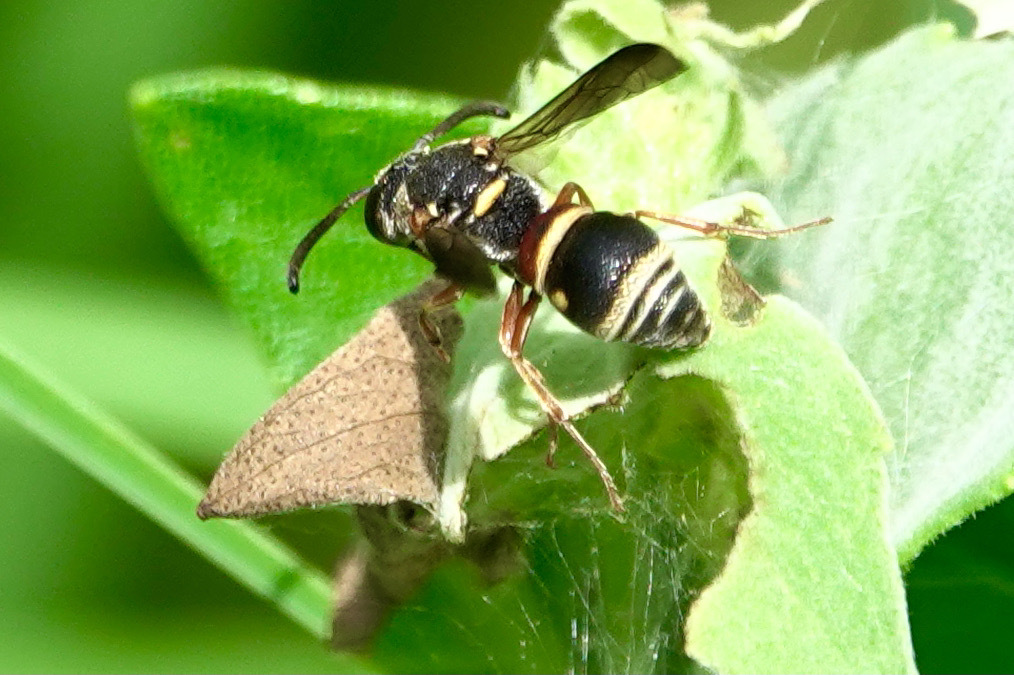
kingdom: Animalia
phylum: Arthropoda
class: Insecta
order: Hymenoptera
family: Eumenidae
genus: Rhynchalastor
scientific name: Rhynchalastor fundatiformis
